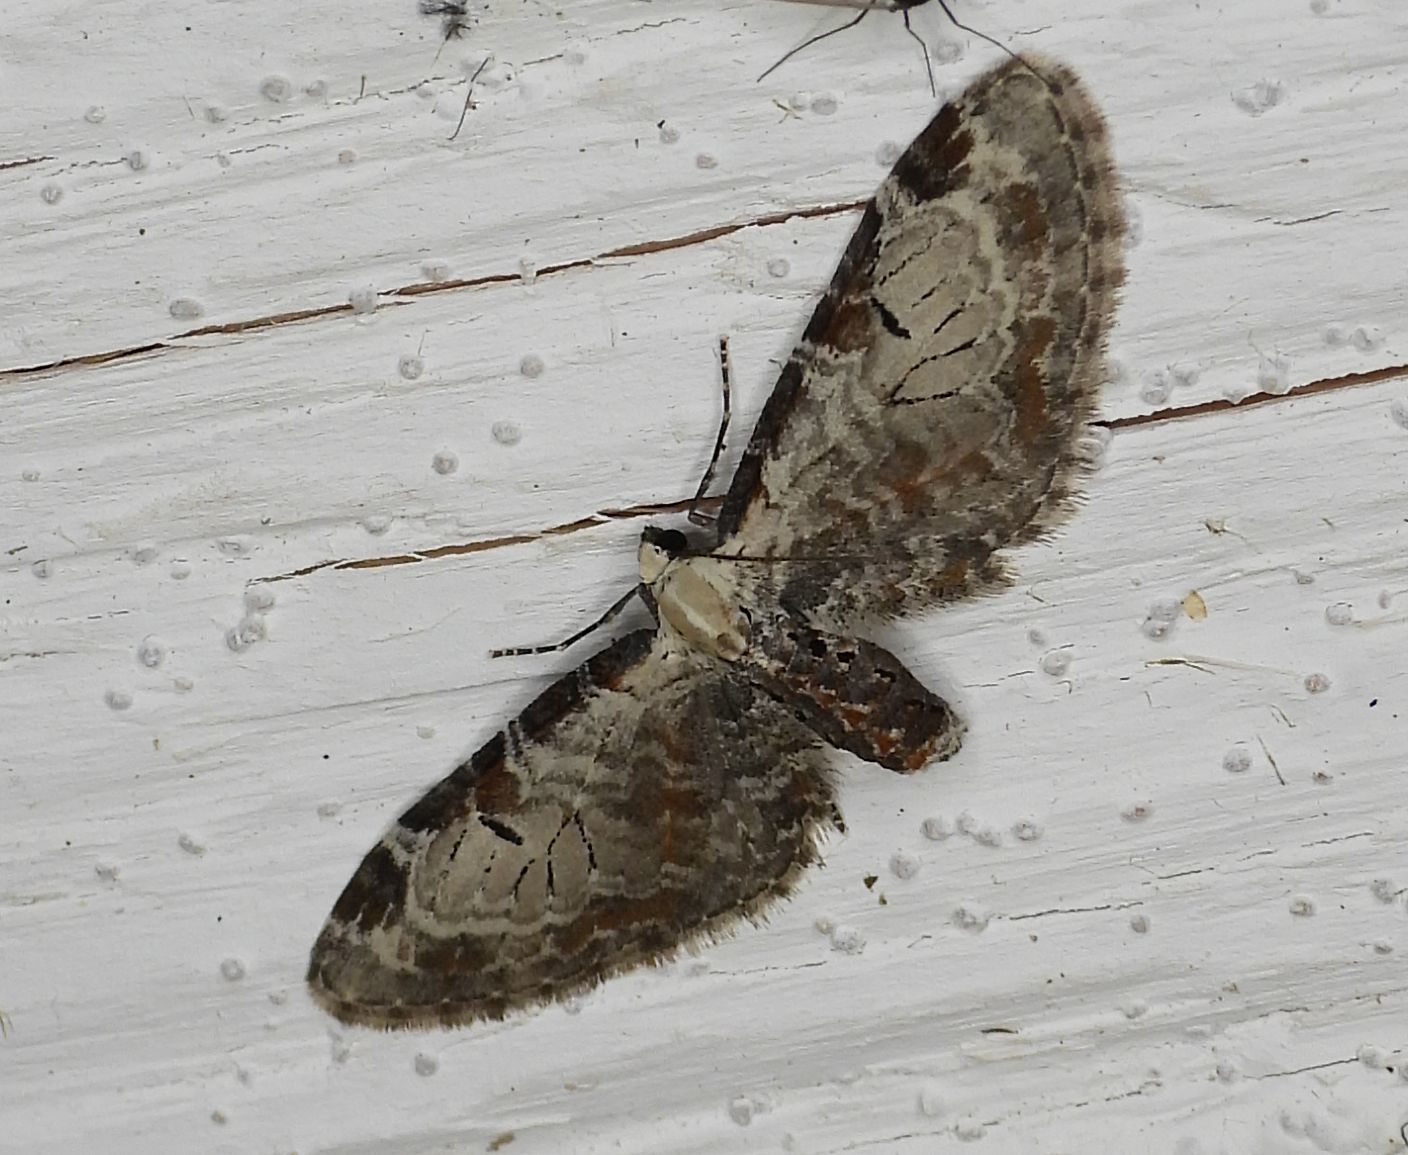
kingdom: Animalia
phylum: Arthropoda
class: Insecta
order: Lepidoptera
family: Geometridae
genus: Eupithecia
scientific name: Eupithecia ravocostaliata
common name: Great varigated pug
